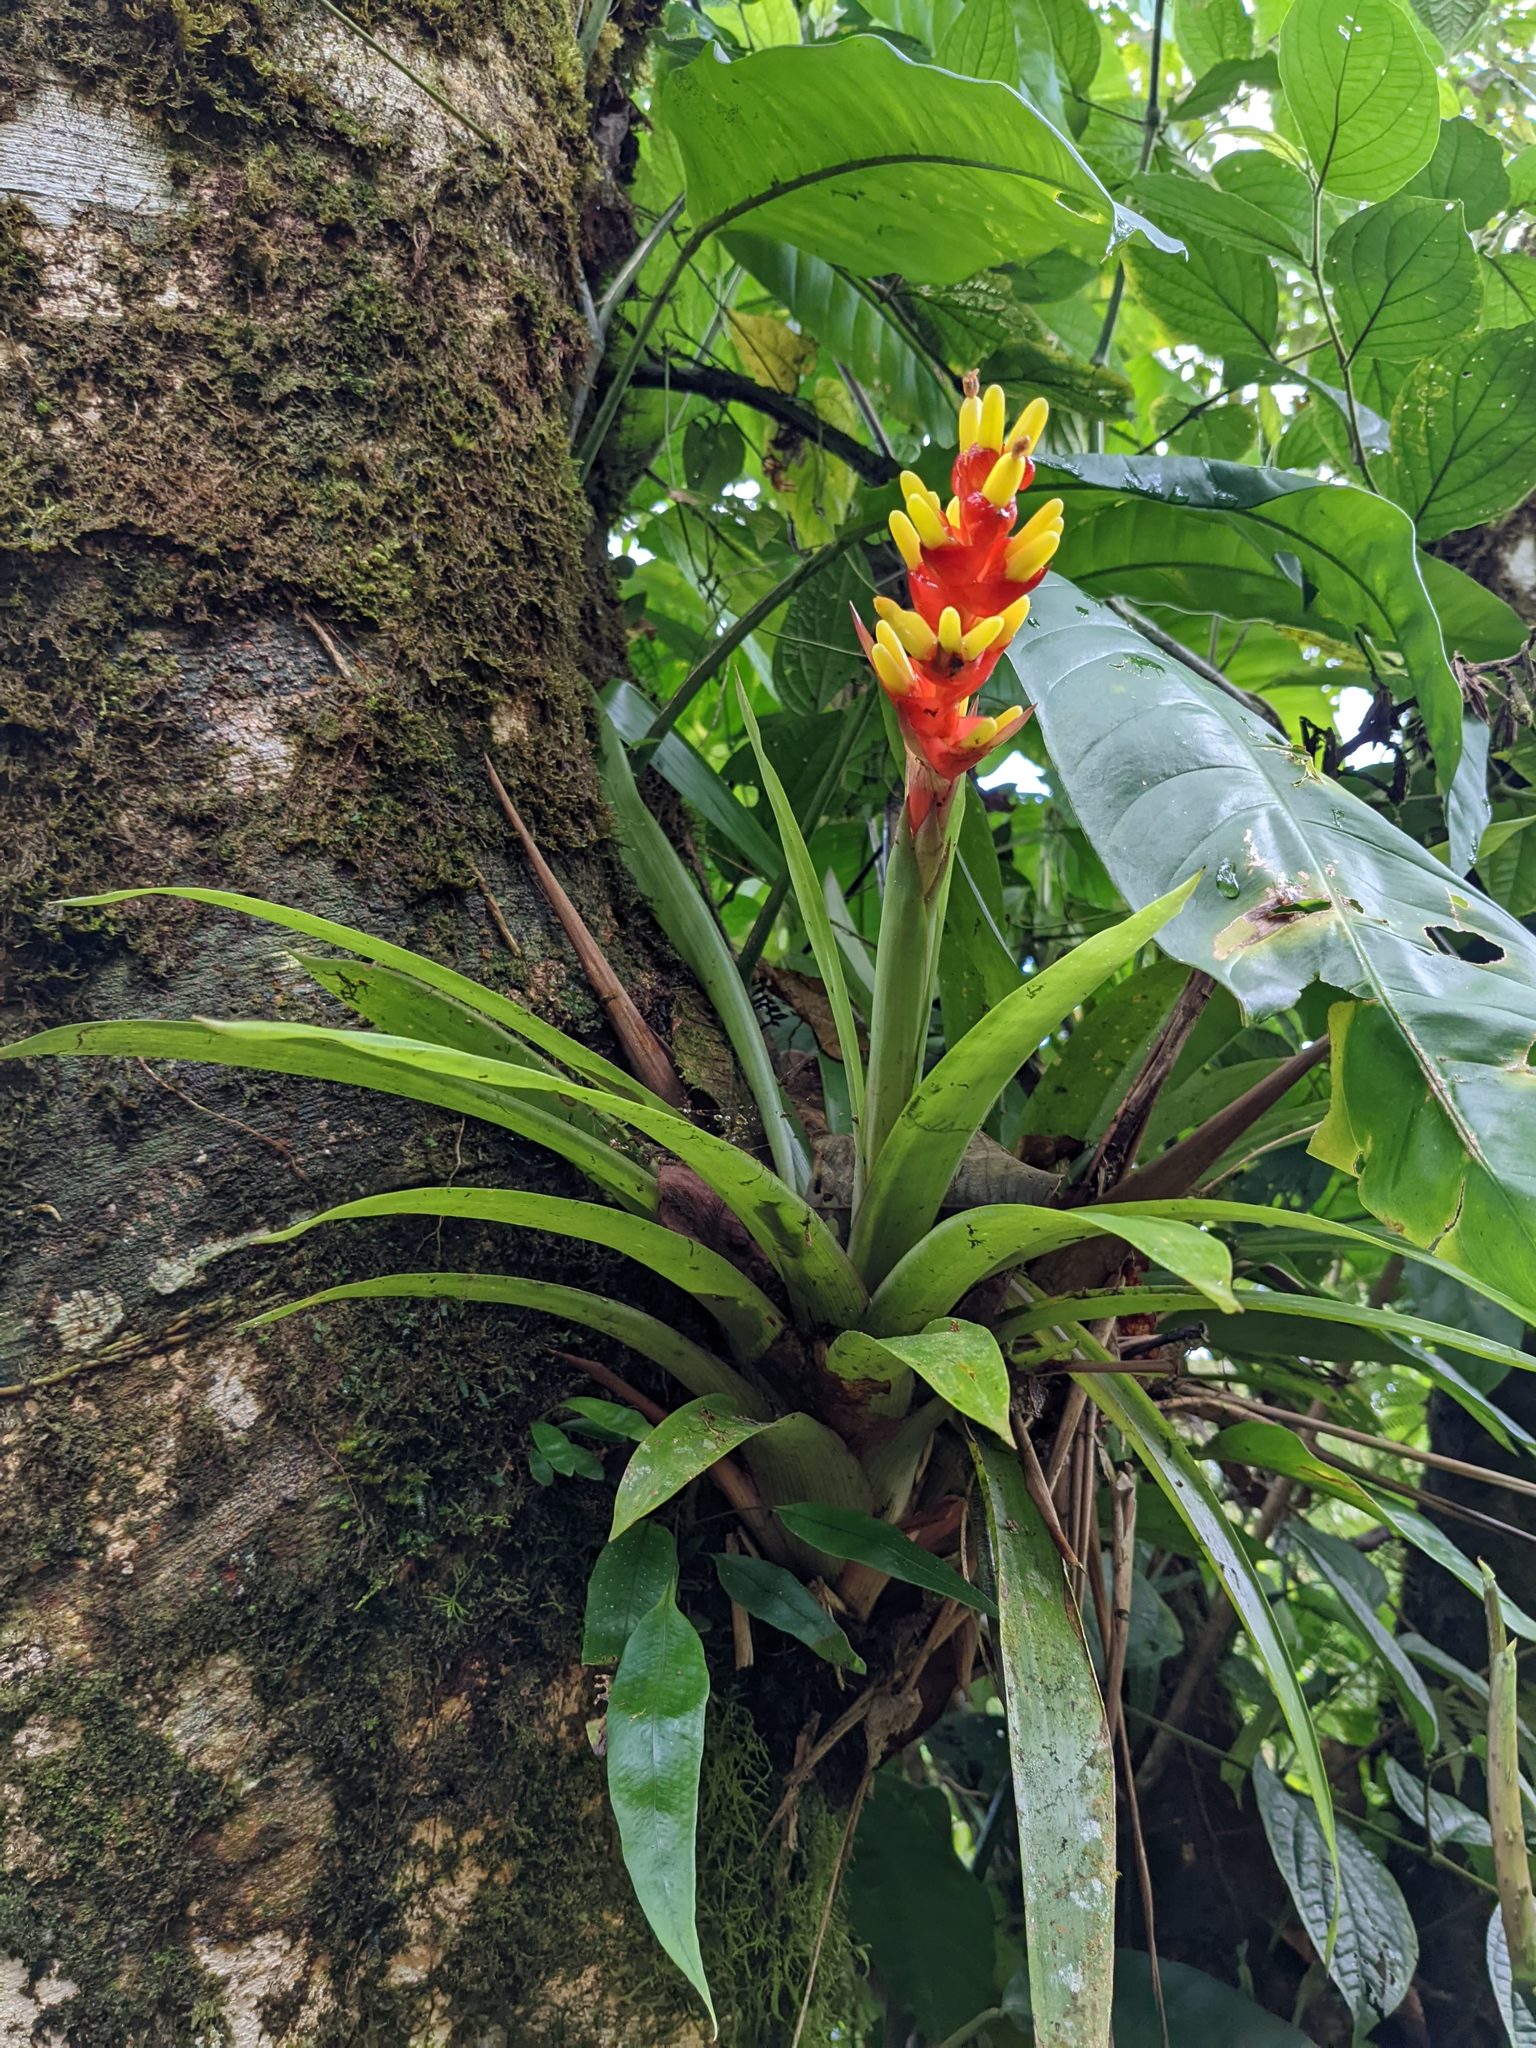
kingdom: Plantae
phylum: Tracheophyta
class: Liliopsida
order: Poales
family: Bromeliaceae
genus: Guzmania
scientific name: Guzmania donnellsmithii
